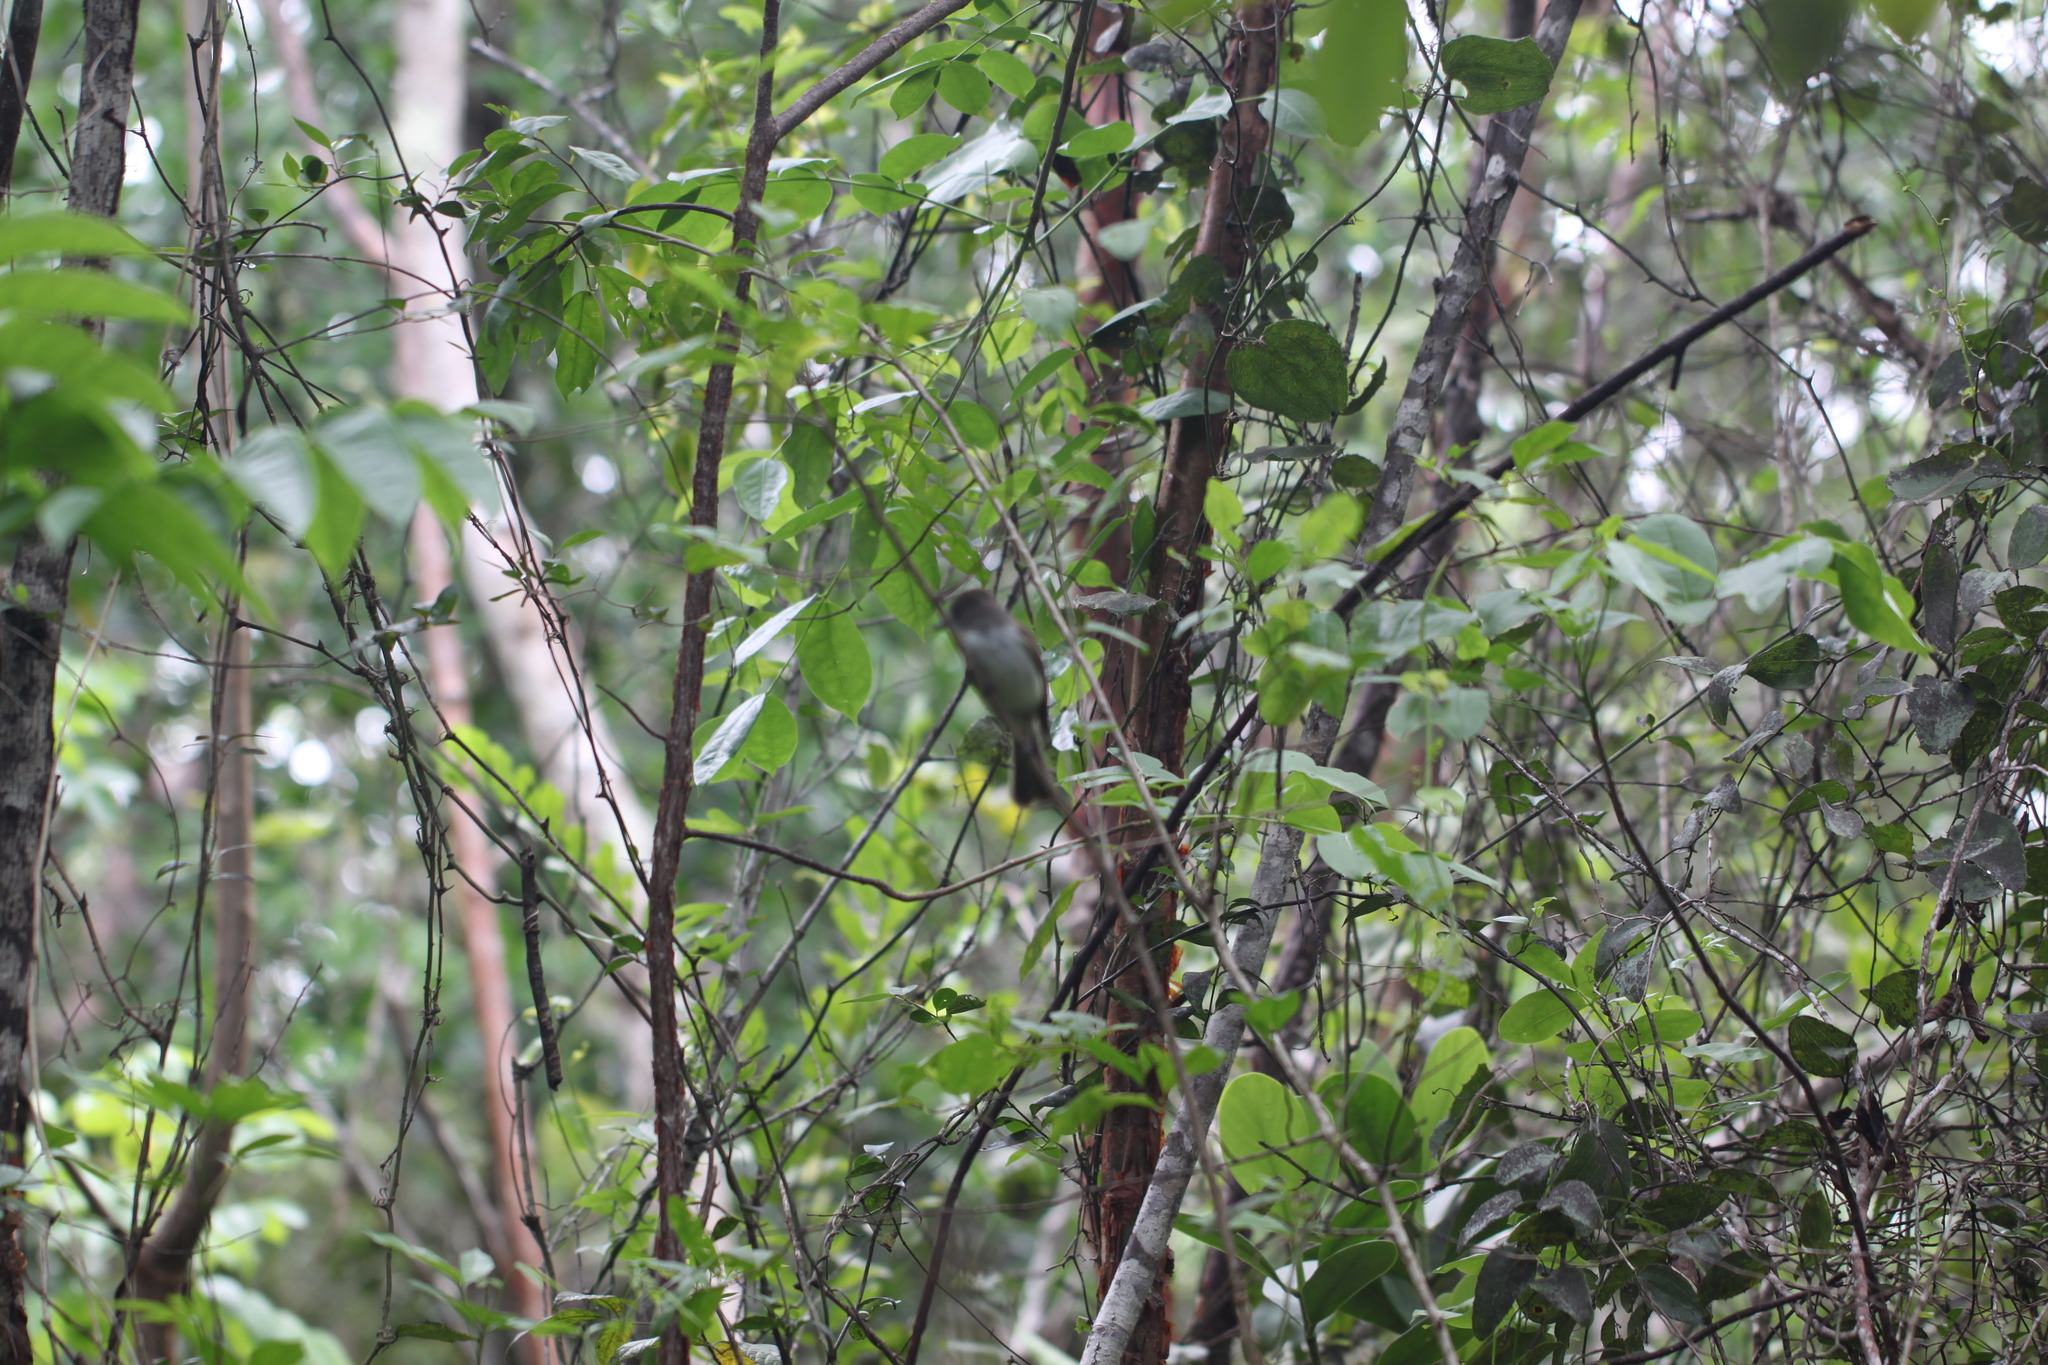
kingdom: Animalia
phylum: Chordata
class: Aves
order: Passeriformes
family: Tyrannidae
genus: Myiarchus
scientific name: Myiarchus sagrae
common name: La sagra's flycatcher
